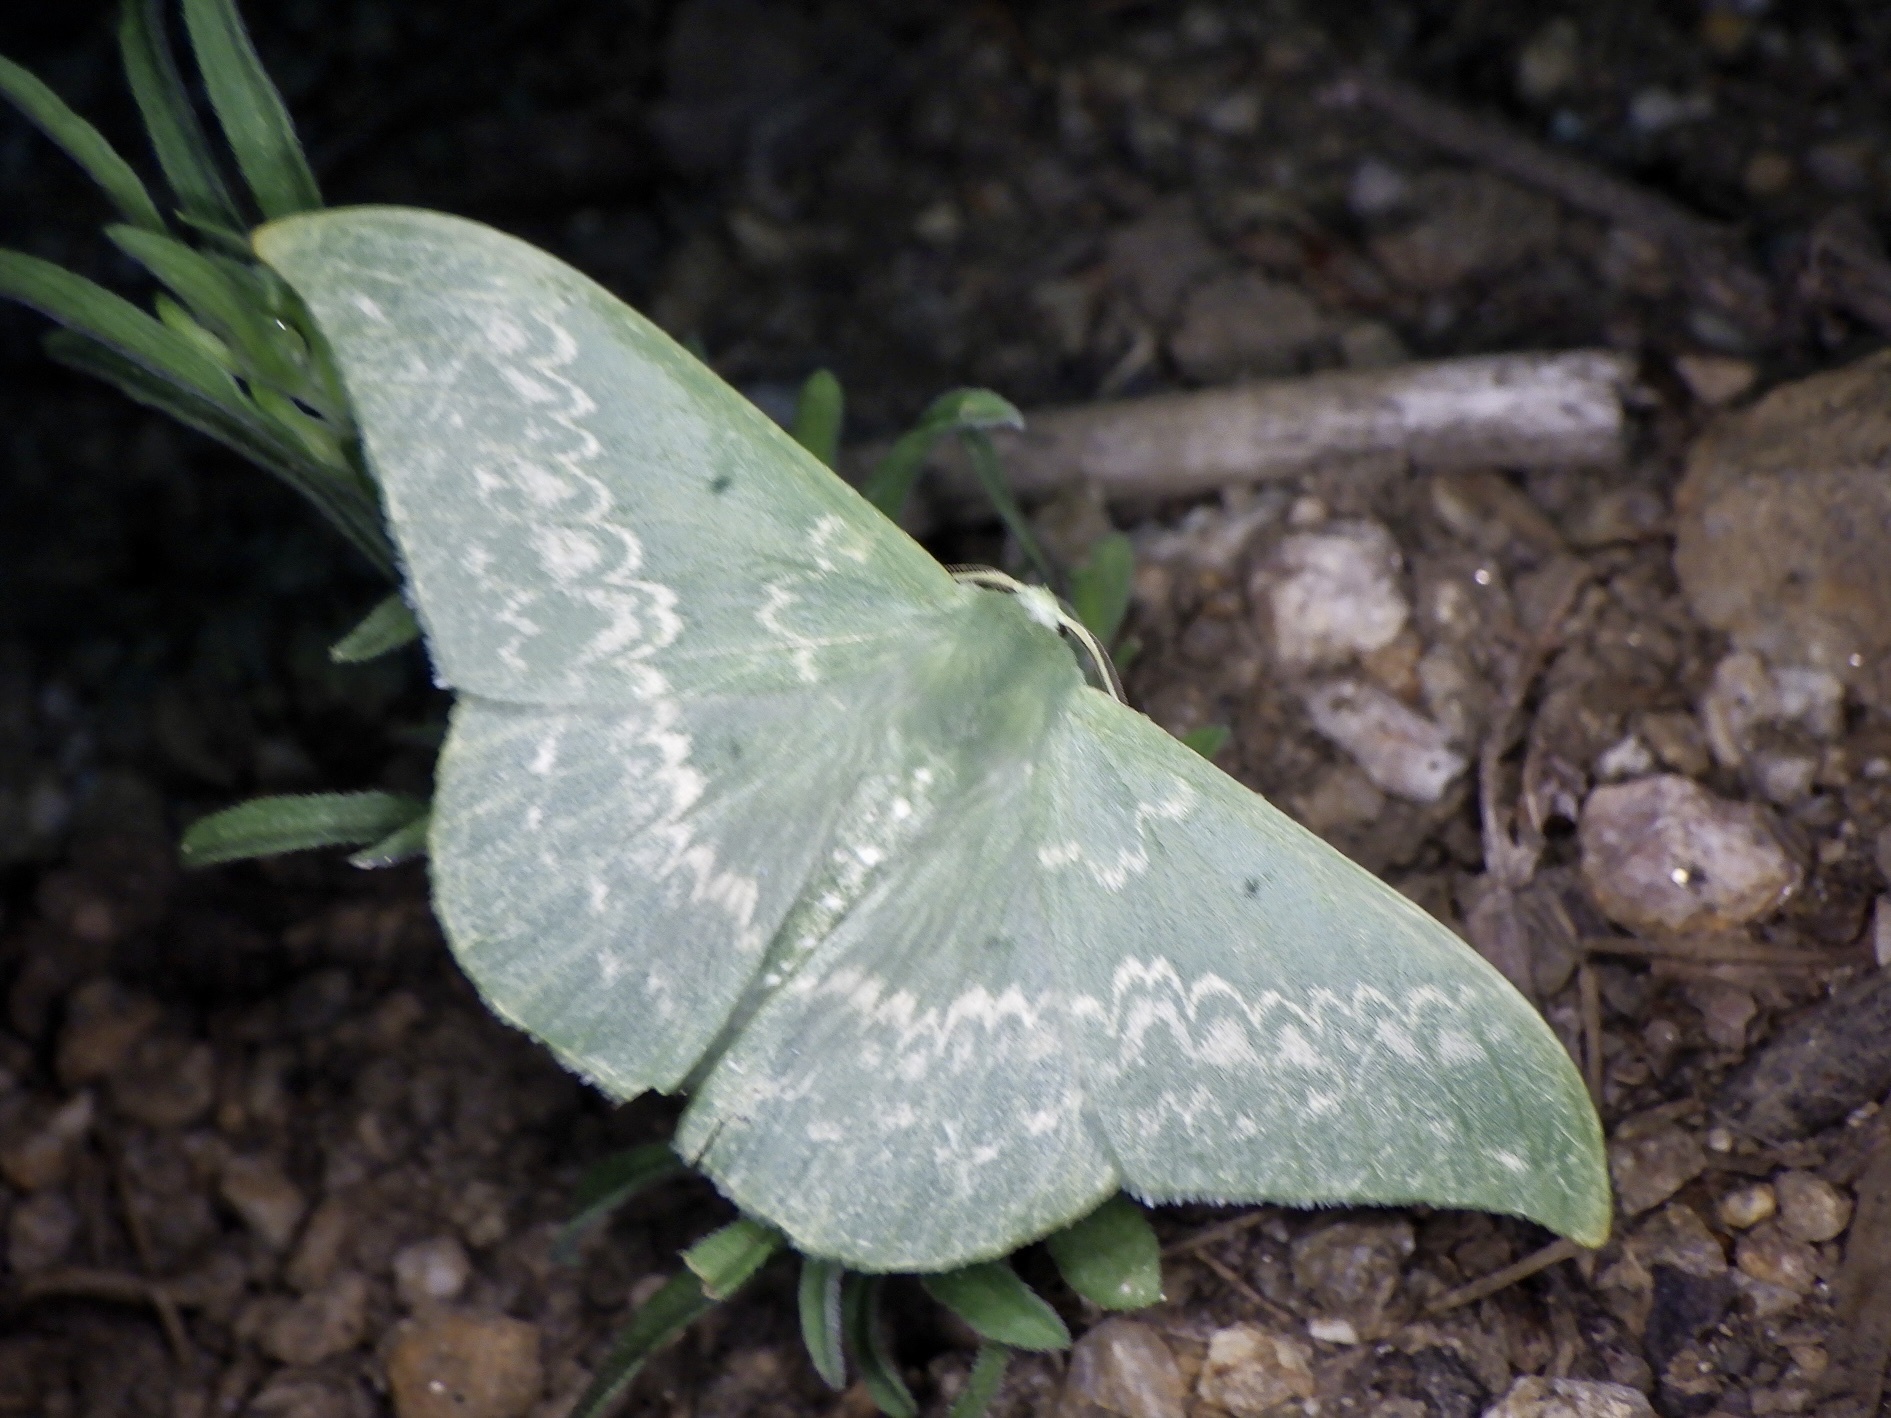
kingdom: Animalia
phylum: Arthropoda
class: Insecta
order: Lepidoptera
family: Geometridae
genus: Tanaorhinus
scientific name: Tanaorhinus reciprocata
